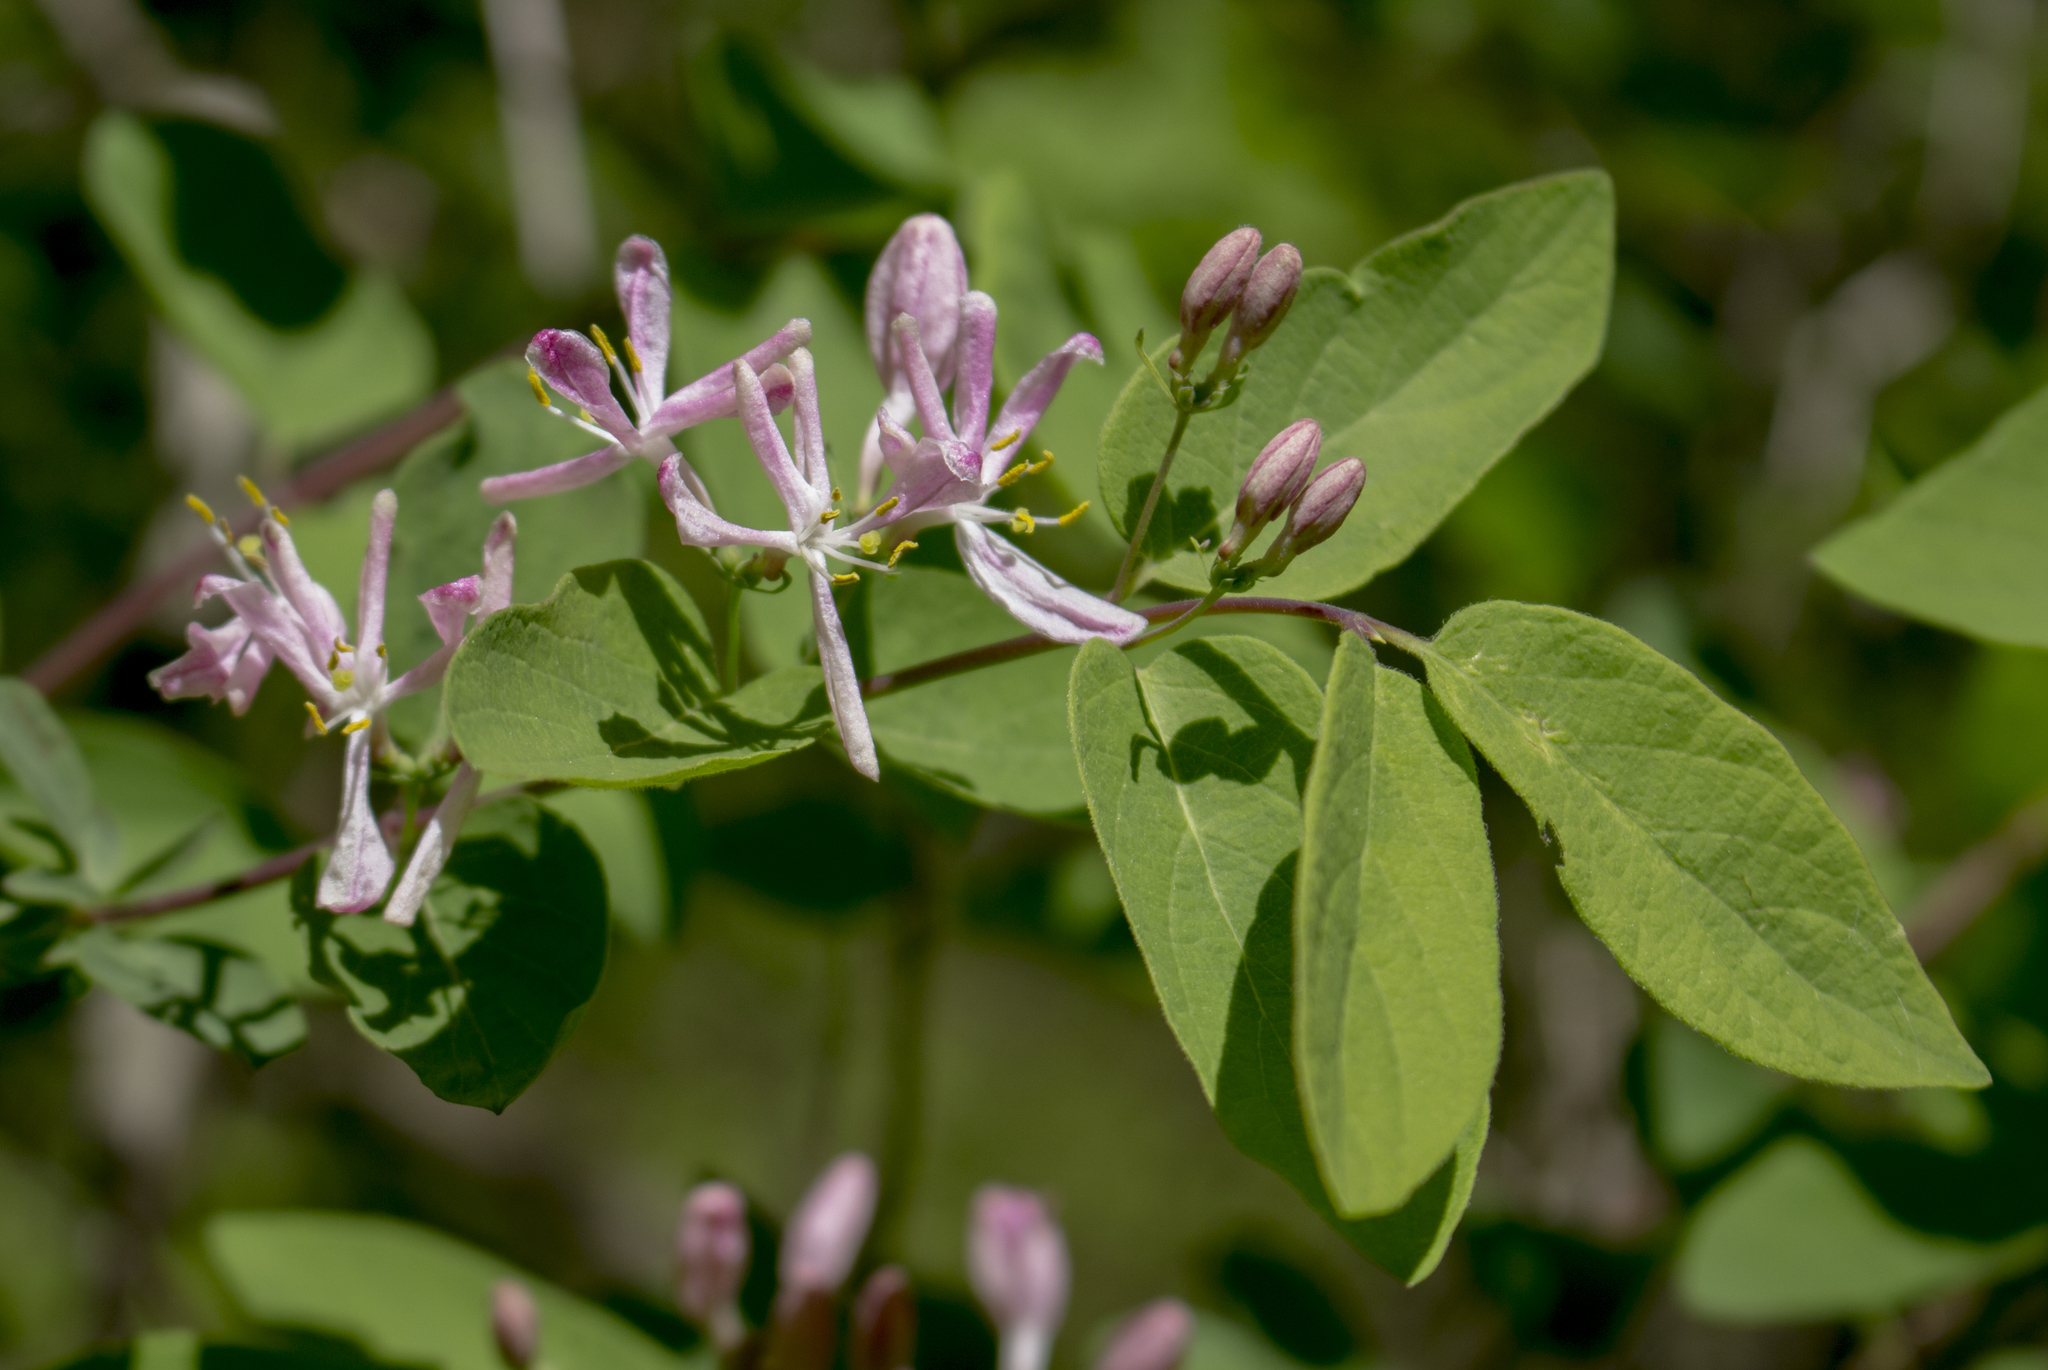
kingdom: Plantae
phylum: Tracheophyta
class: Magnoliopsida
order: Dipsacales
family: Caprifoliaceae
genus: Lonicera
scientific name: Lonicera bella
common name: Bell's honeysuckle
